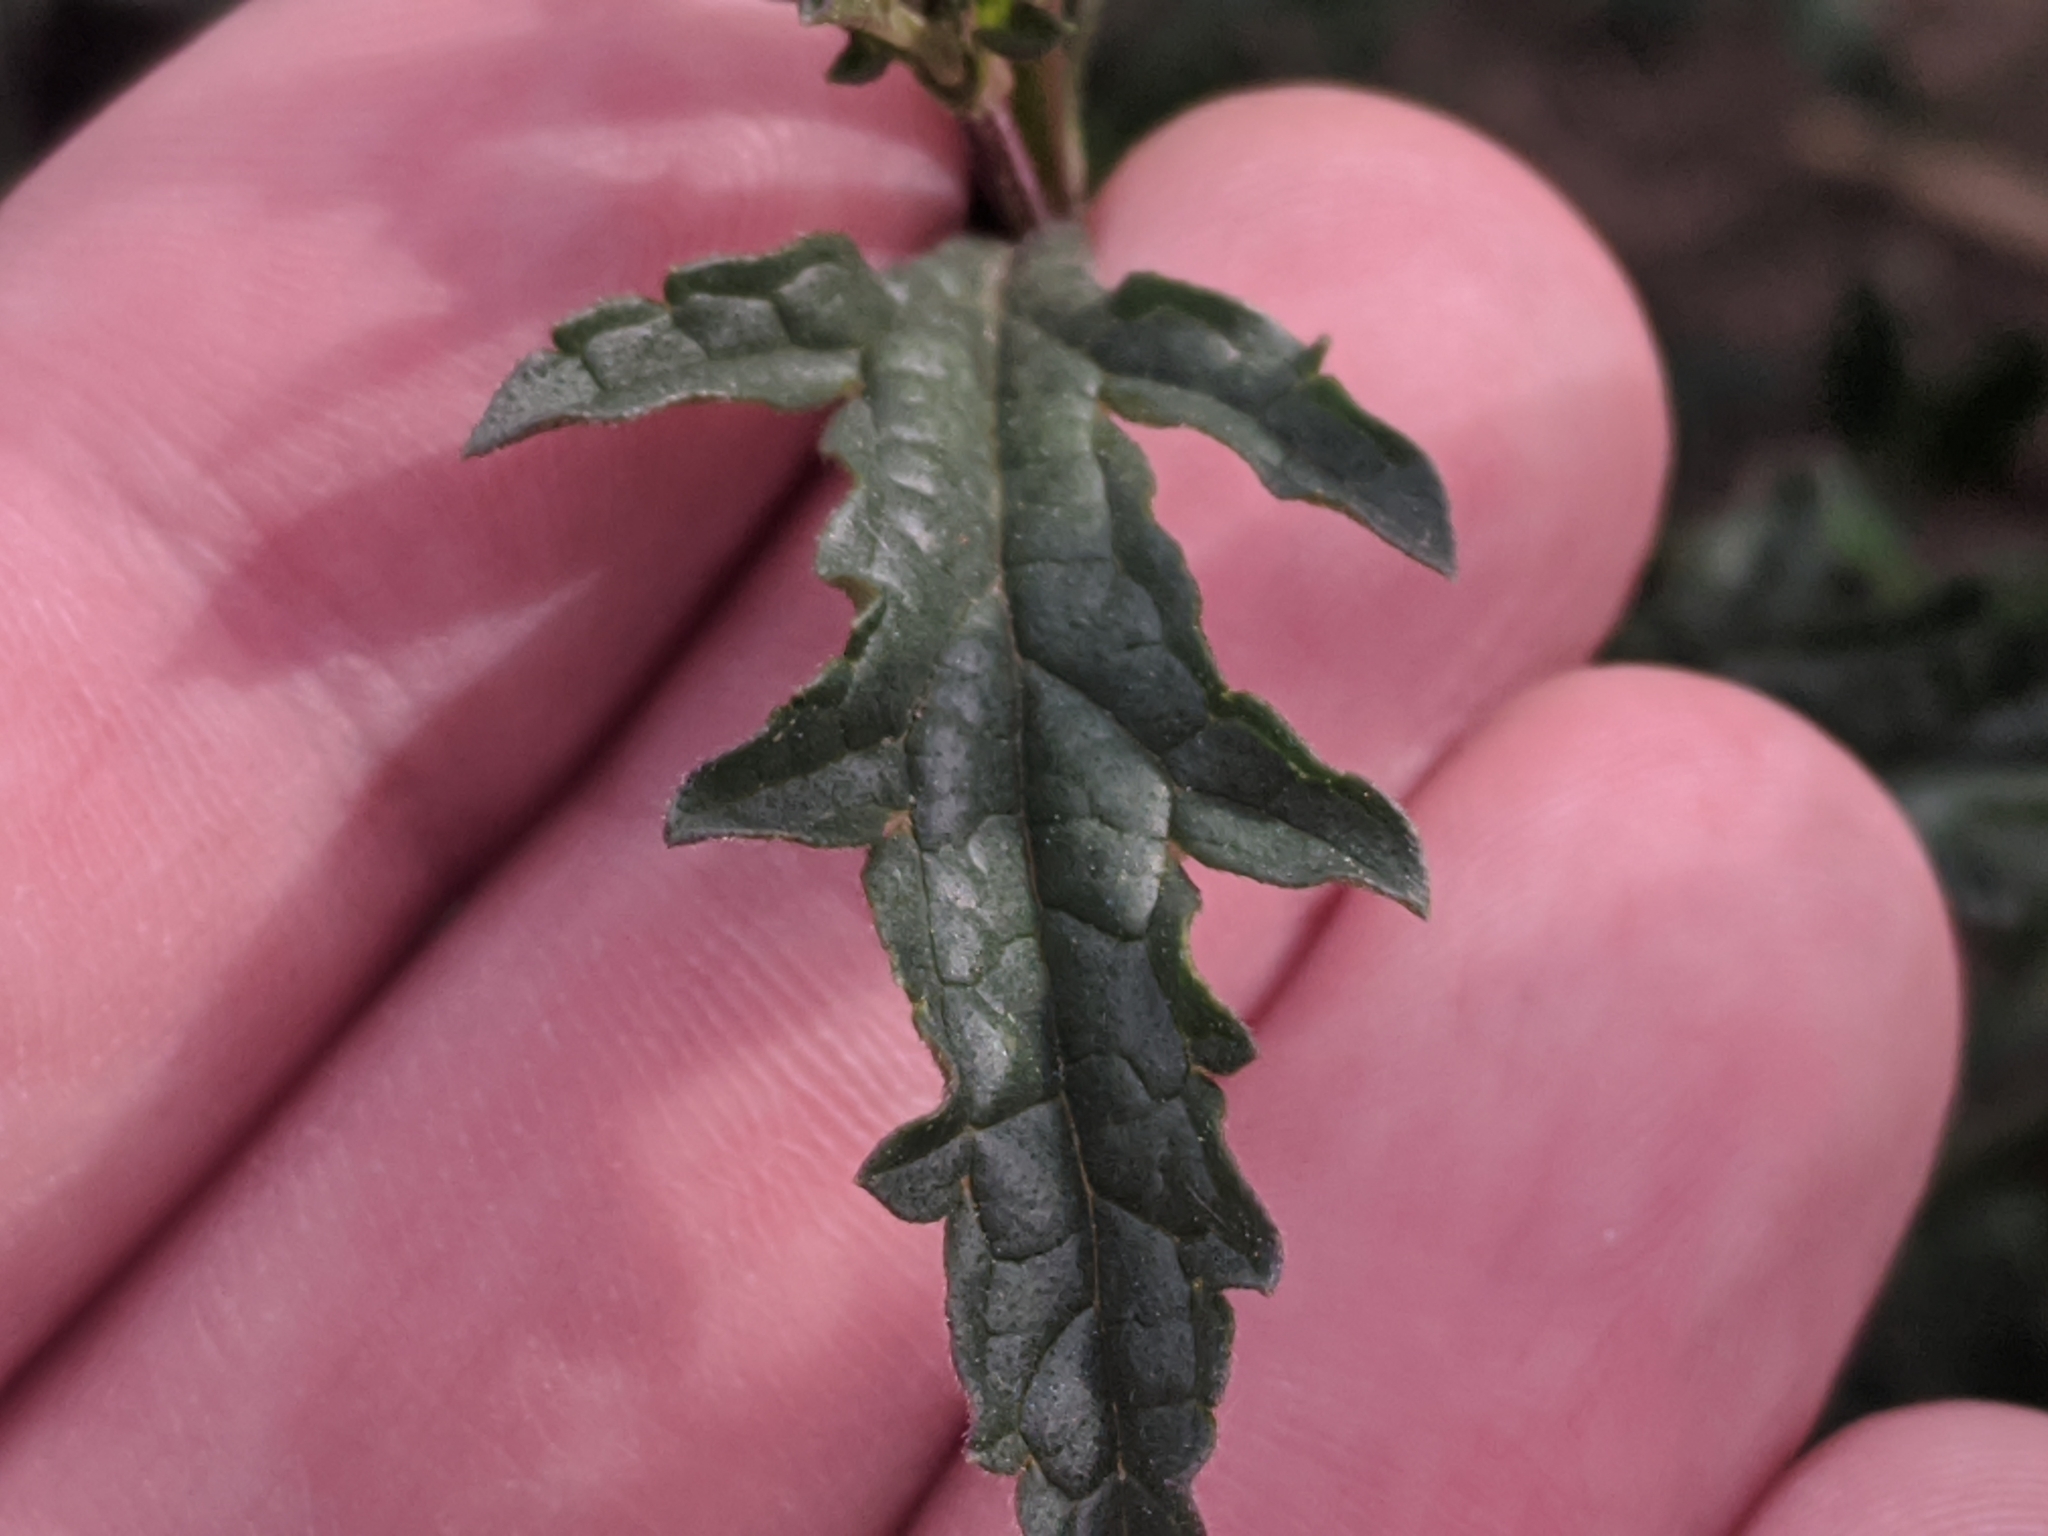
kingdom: Plantae
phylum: Tracheophyta
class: Magnoliopsida
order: Lamiales
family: Verbenaceae
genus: Verbena
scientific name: Verbena officinalis
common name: Vervain
